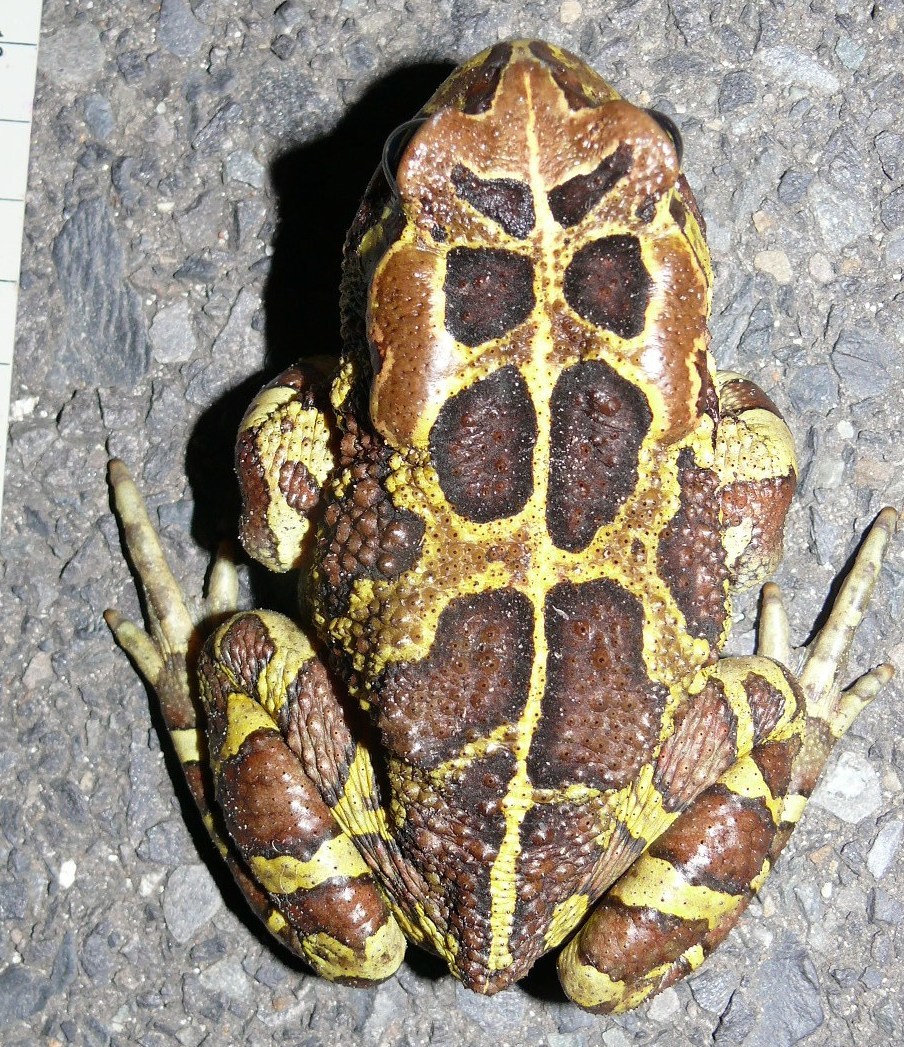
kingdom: Animalia
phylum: Chordata
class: Amphibia
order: Anura
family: Bufonidae
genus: Sclerophrys
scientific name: Sclerophrys pantherina
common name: Panther toad
